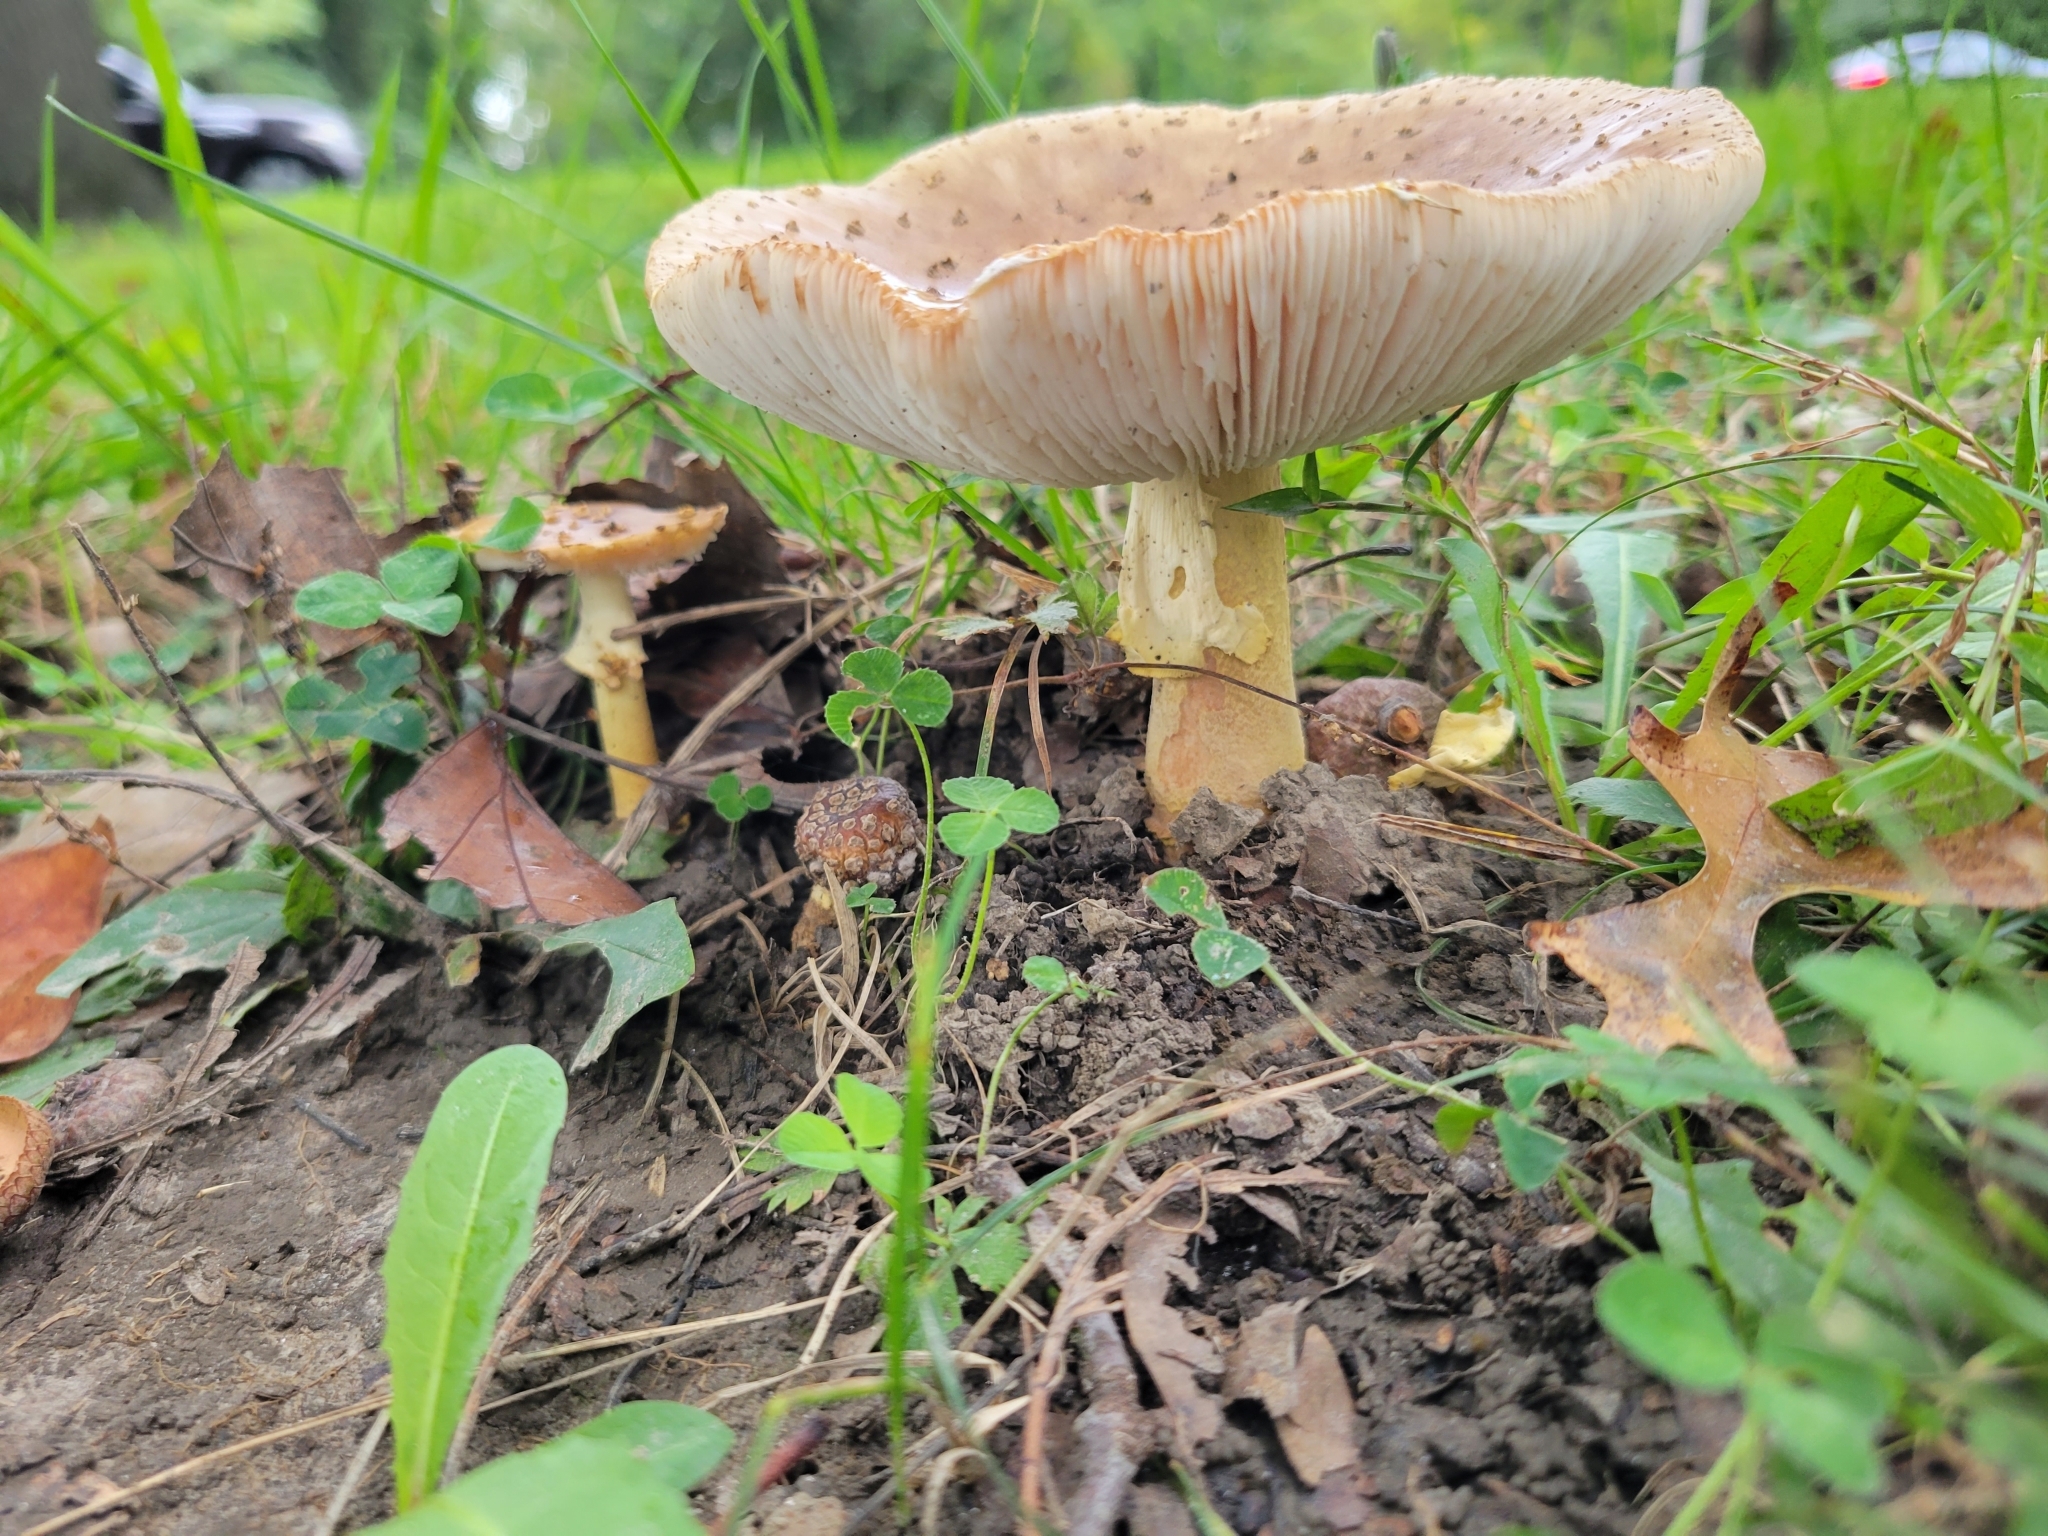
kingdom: Fungi
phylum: Basidiomycota
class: Agaricomycetes
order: Agaricales
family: Amanitaceae
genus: Amanita
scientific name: Amanita flavorubens
